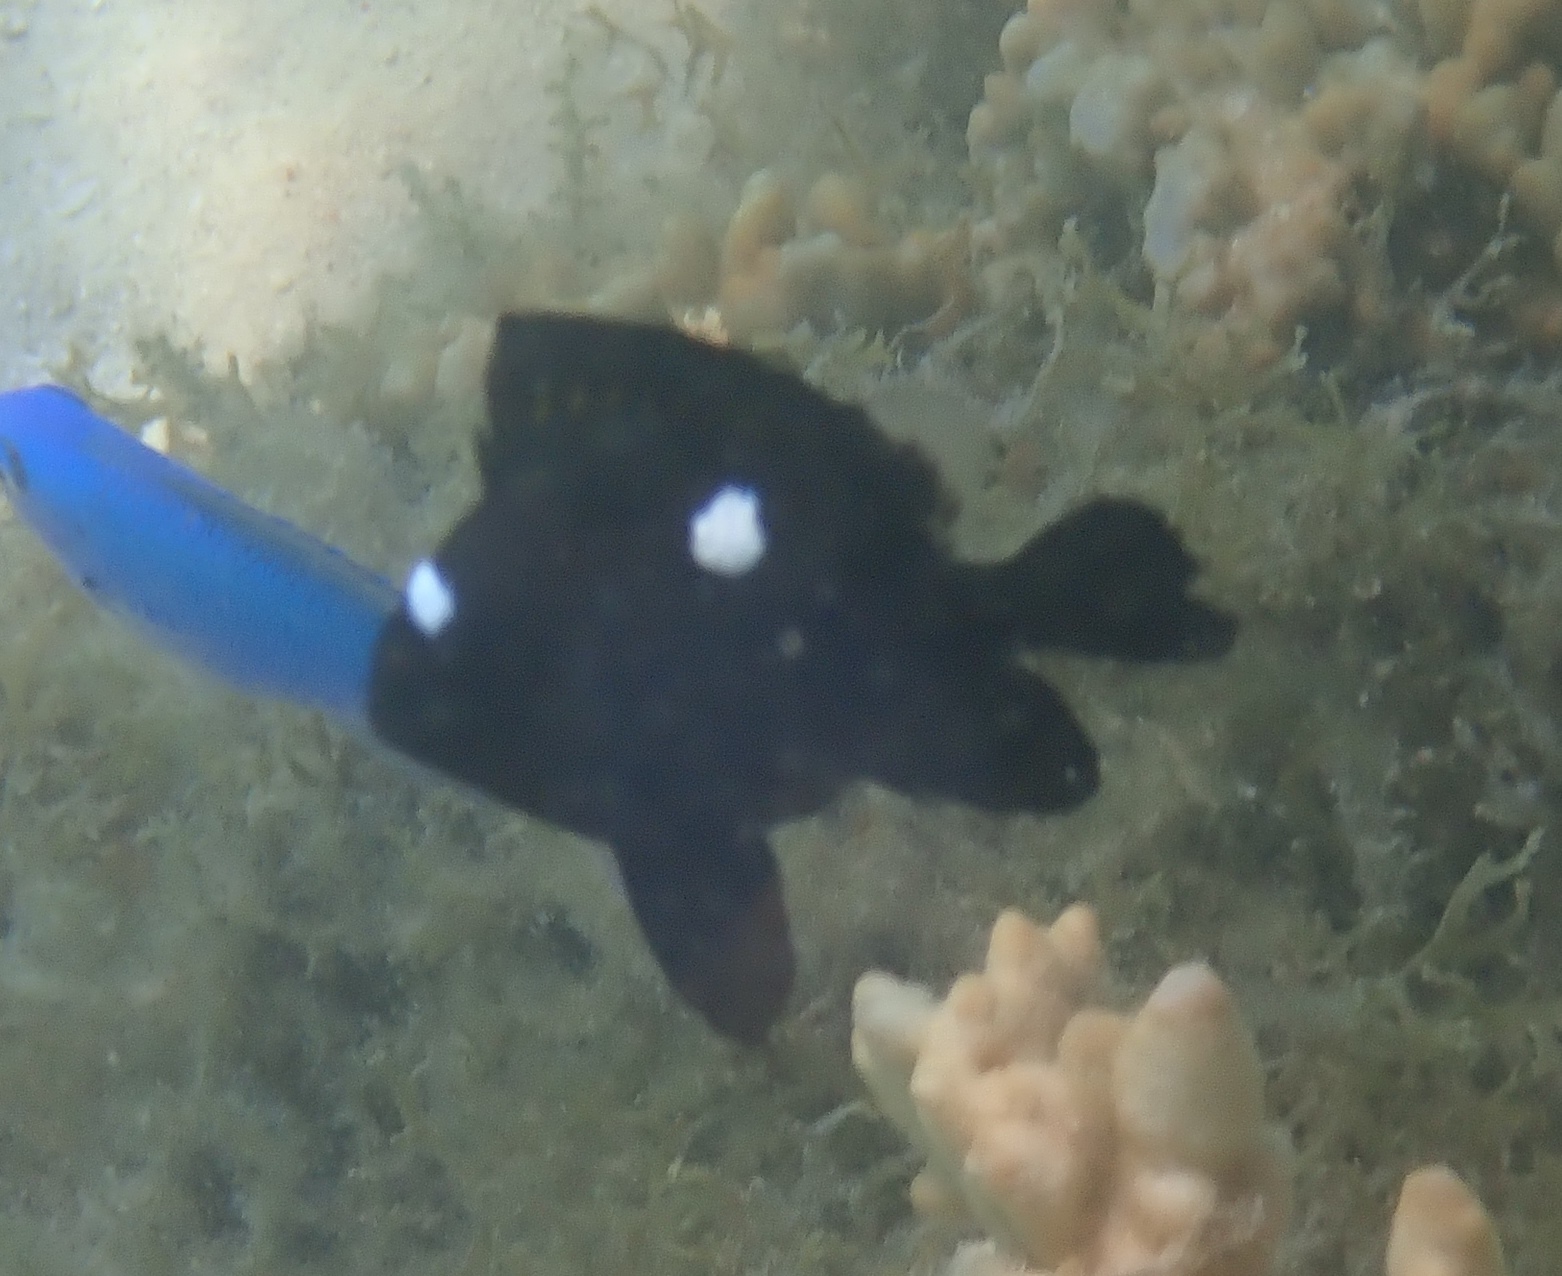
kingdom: Animalia
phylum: Chordata
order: Perciformes
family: Pomacentridae
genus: Dascyllus
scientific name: Dascyllus trimaculatus
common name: Threespot dascyllus
